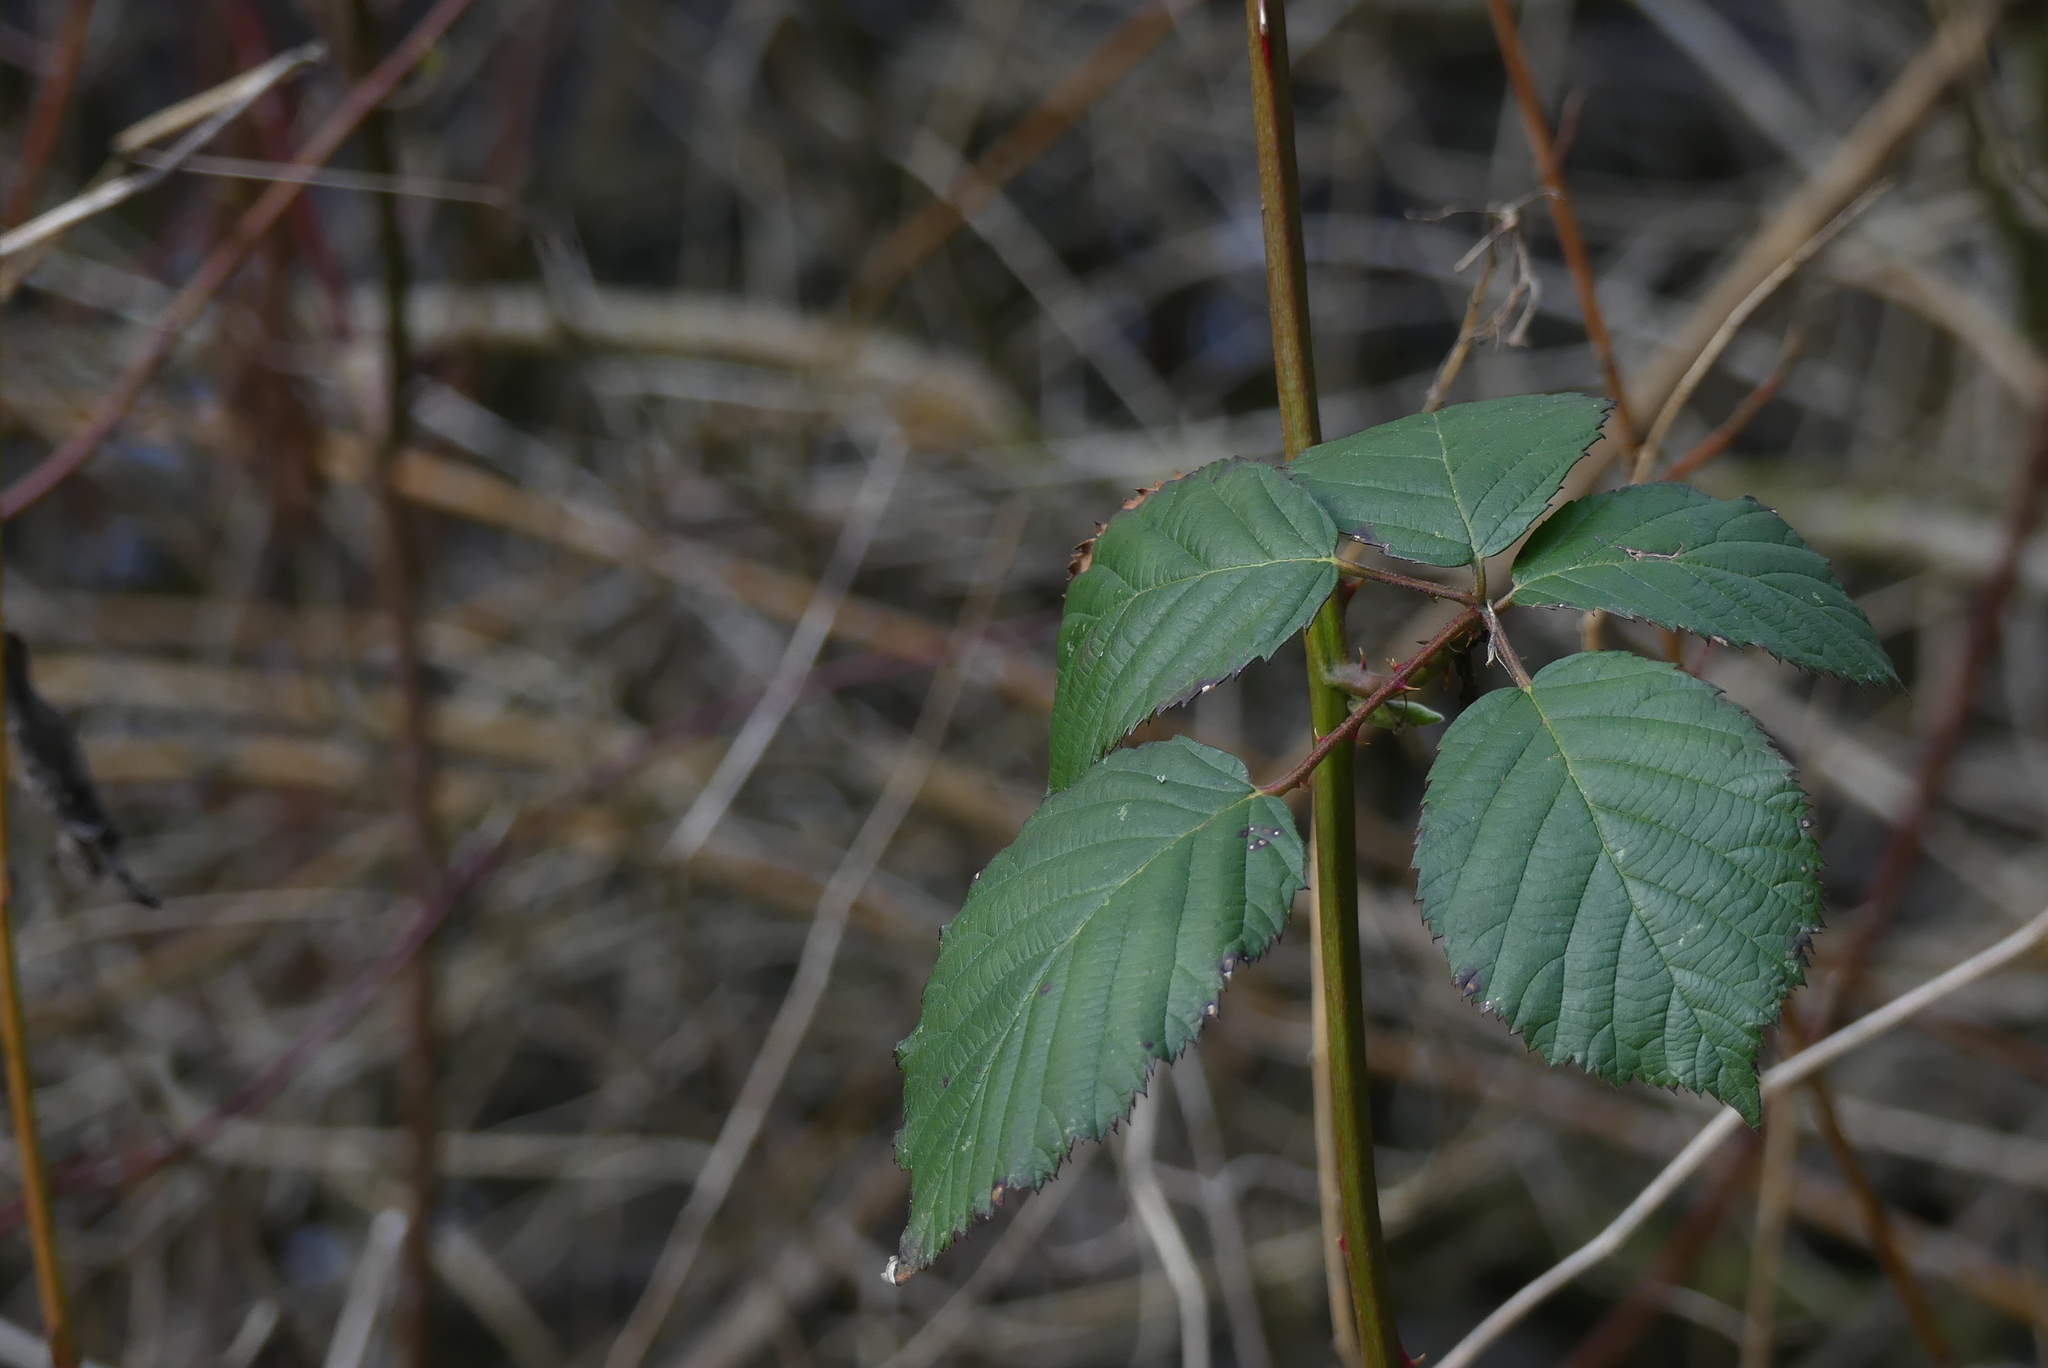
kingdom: Plantae
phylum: Tracheophyta
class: Magnoliopsida
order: Rosales
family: Rosaceae
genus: Rubus
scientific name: Rubus bifrons
